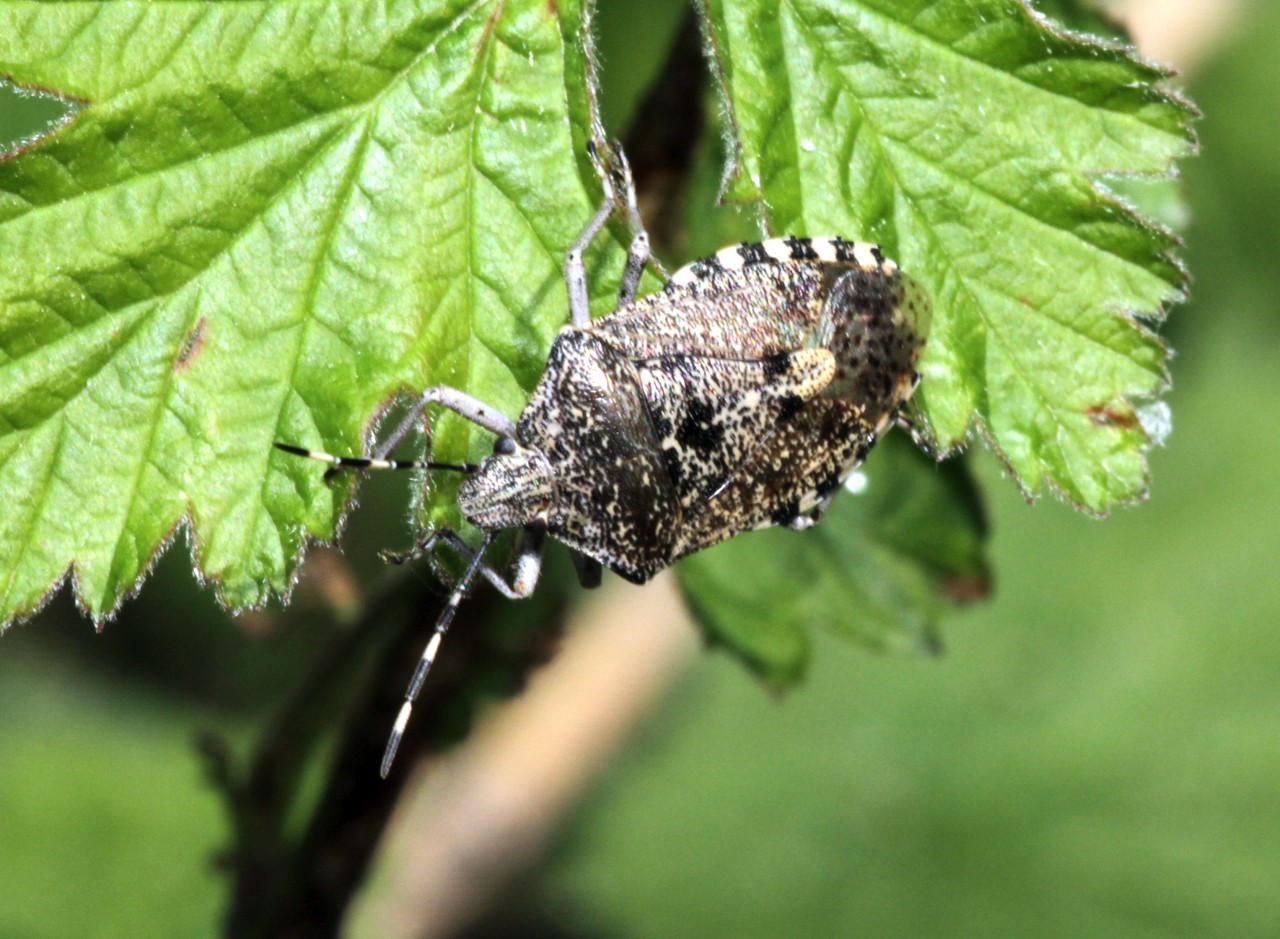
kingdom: Animalia
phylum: Arthropoda
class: Insecta
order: Hemiptera
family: Pentatomidae
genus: Rhaphigaster
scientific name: Rhaphigaster nebulosa
